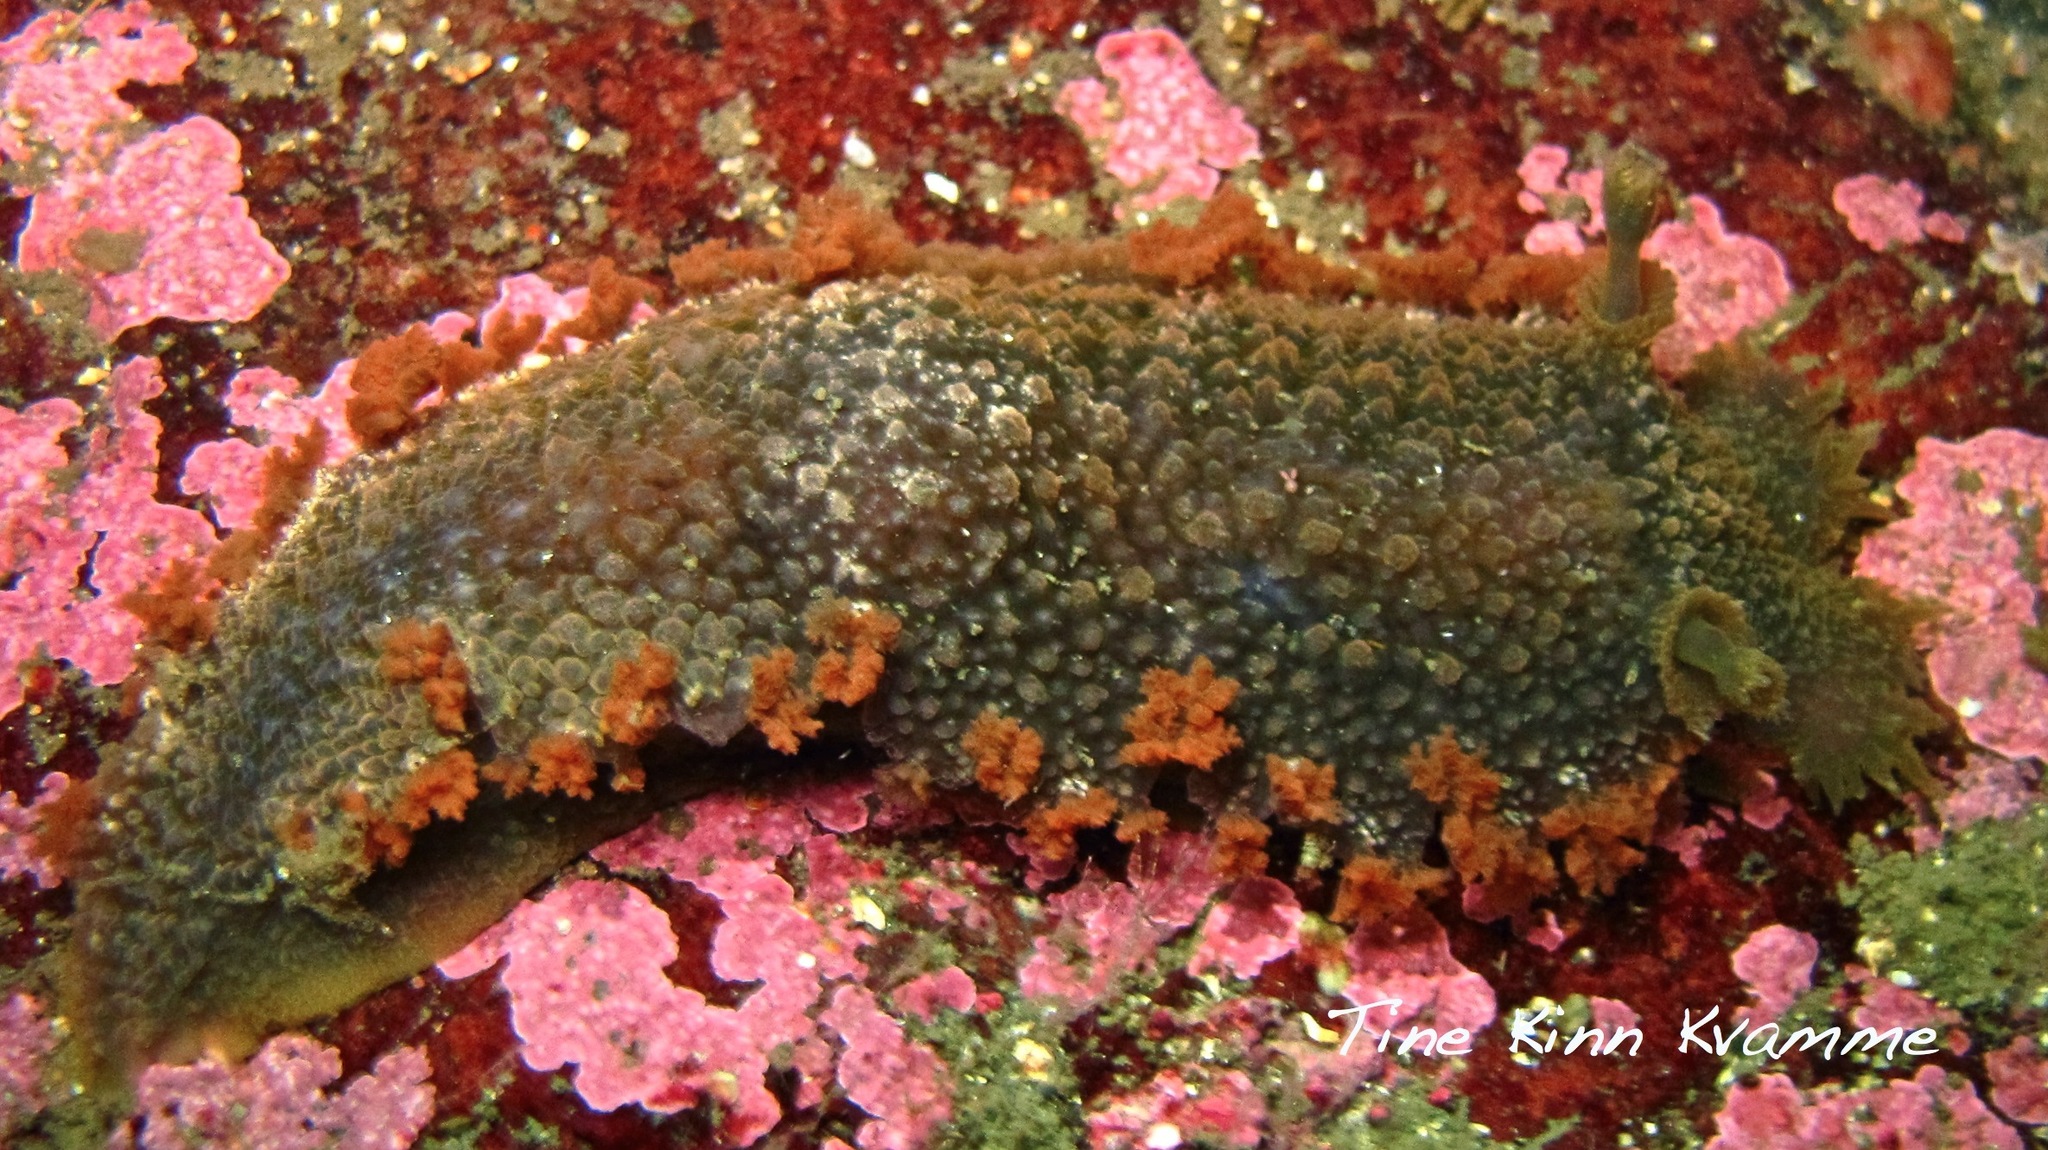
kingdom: Animalia
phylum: Mollusca
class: Gastropoda
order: Nudibranchia
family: Tritoniidae
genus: Tritonia
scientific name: Tritonia hombergii
